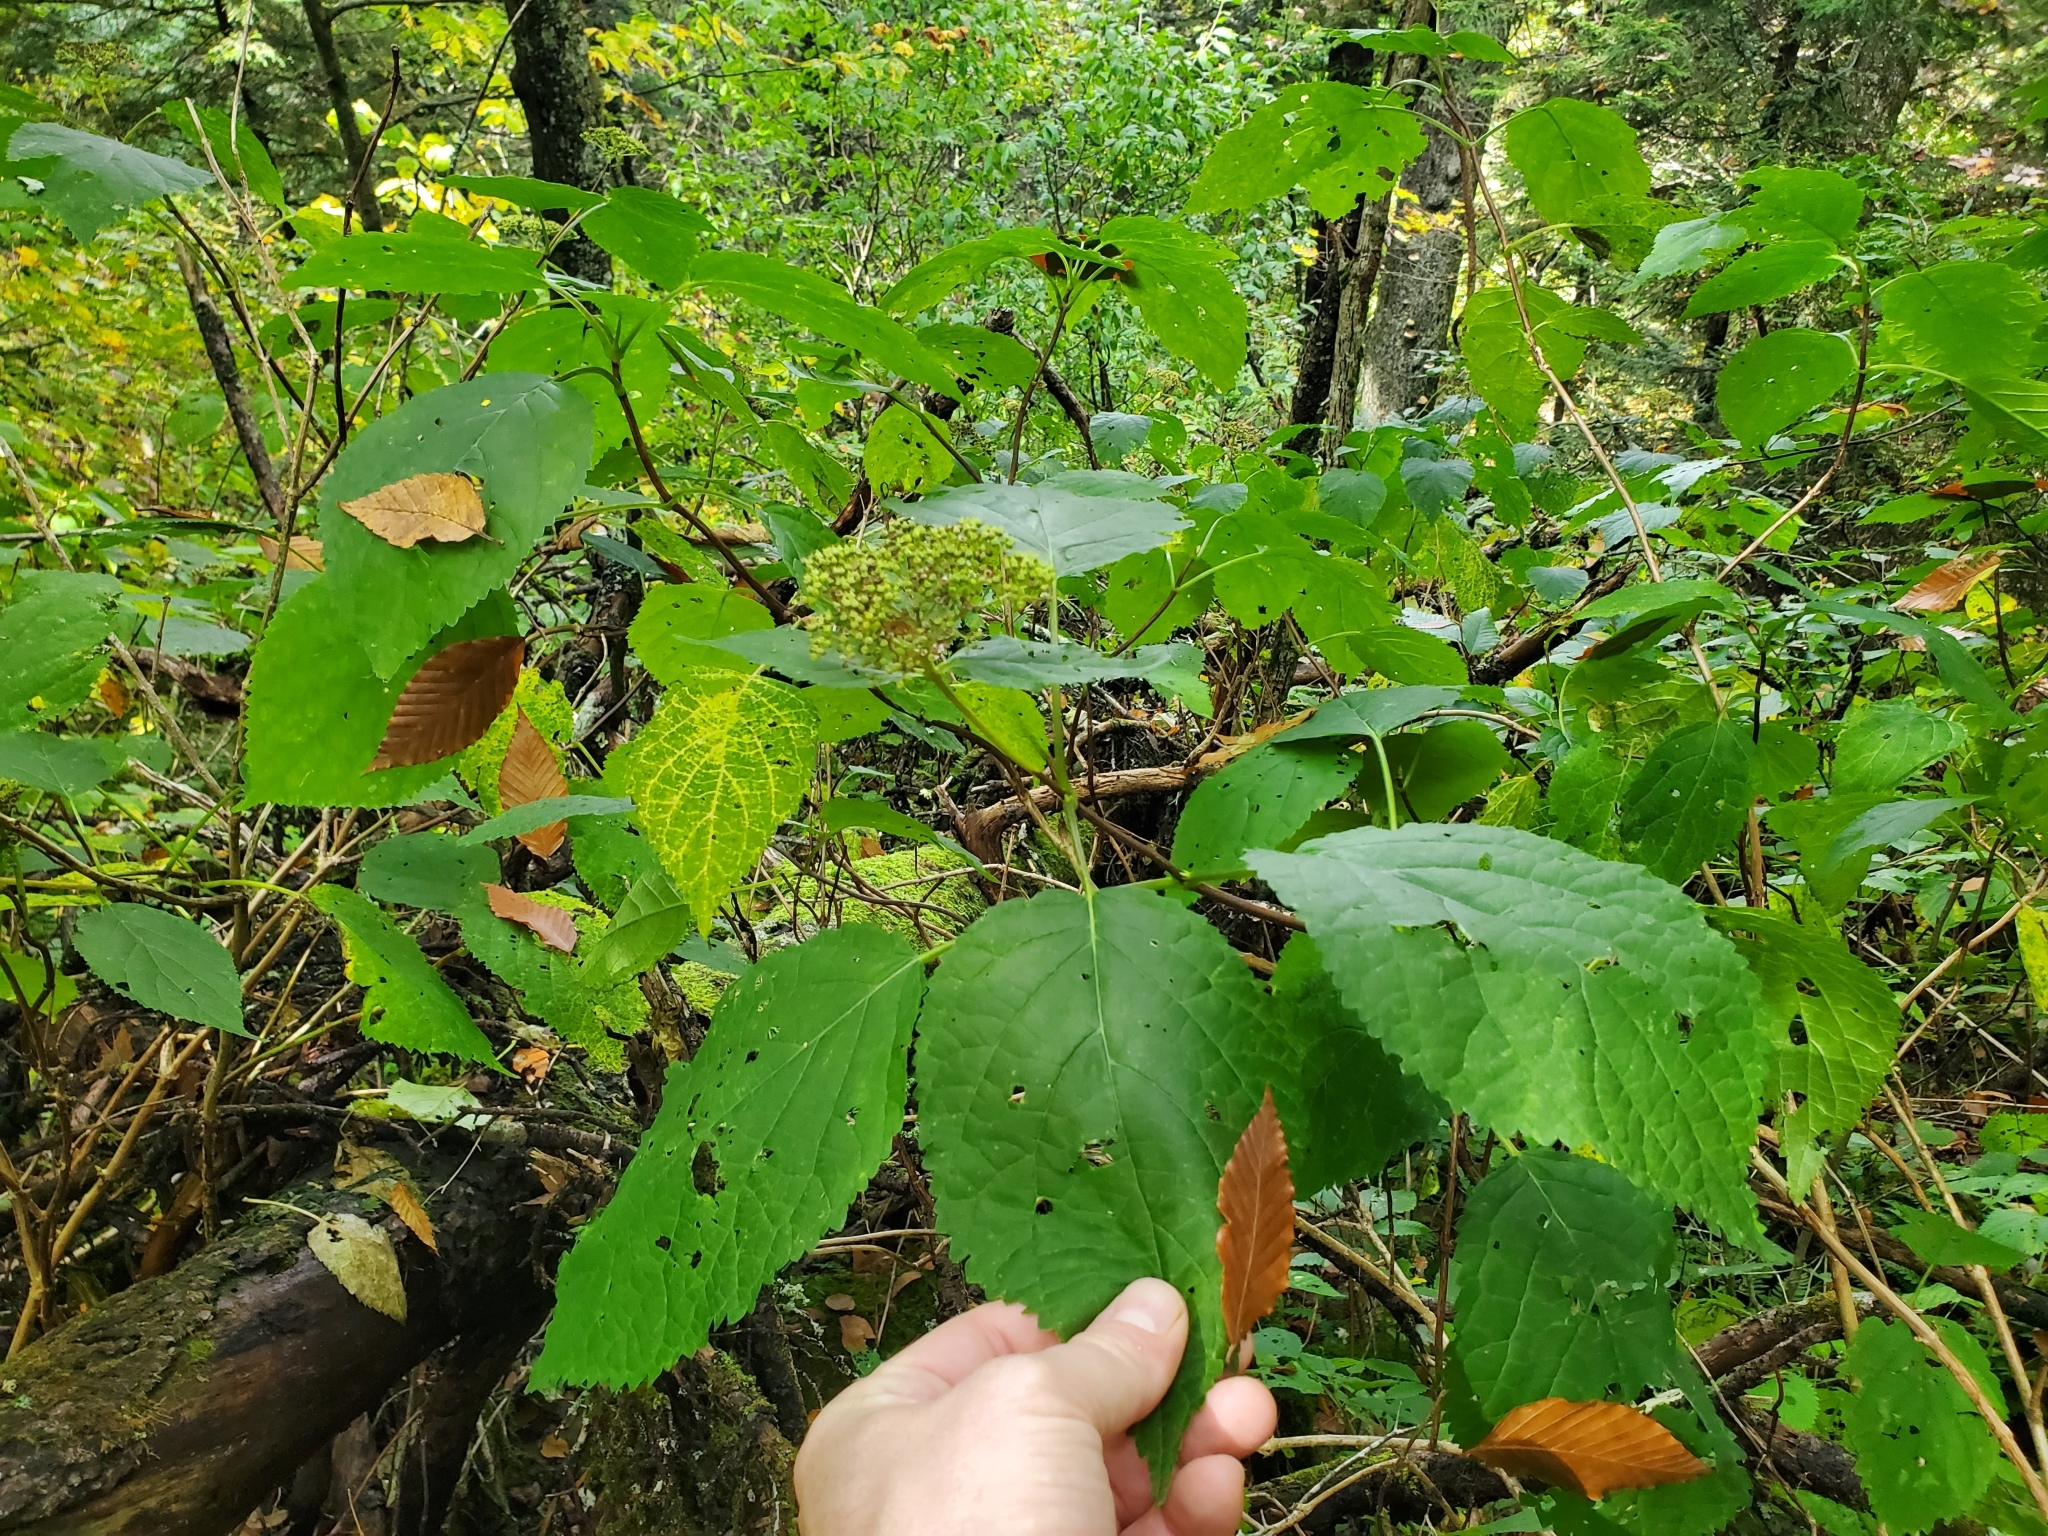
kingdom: Plantae
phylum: Tracheophyta
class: Magnoliopsida
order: Cornales
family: Hydrangeaceae
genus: Hydrangea
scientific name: Hydrangea arborescens
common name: Sevenbark
